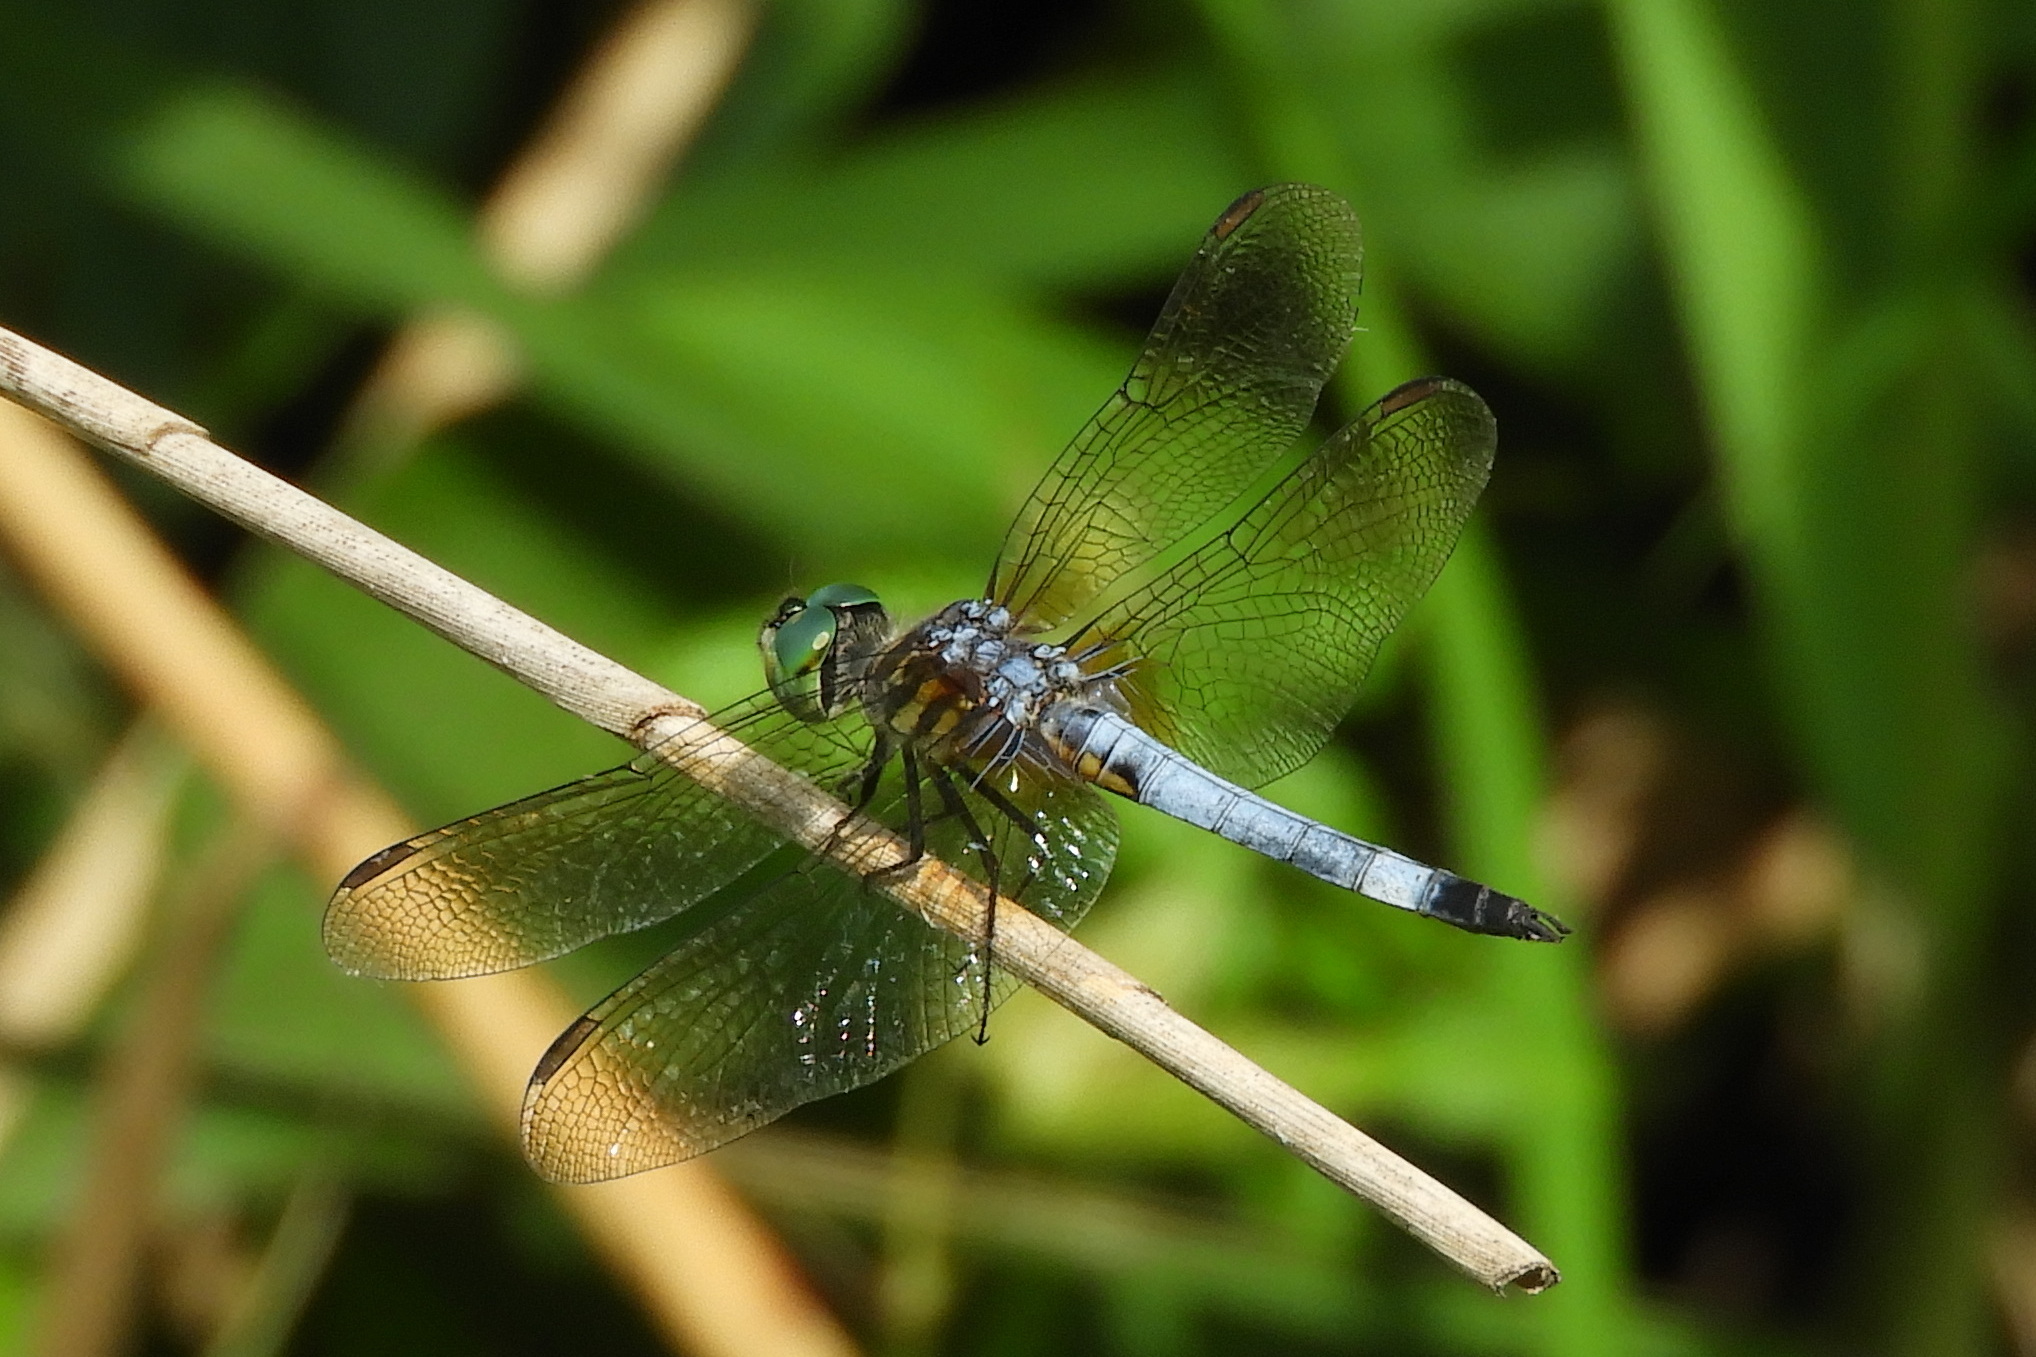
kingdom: Animalia
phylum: Arthropoda
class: Insecta
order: Odonata
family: Libellulidae
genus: Pachydiplax
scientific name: Pachydiplax longipennis
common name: Blue dasher
